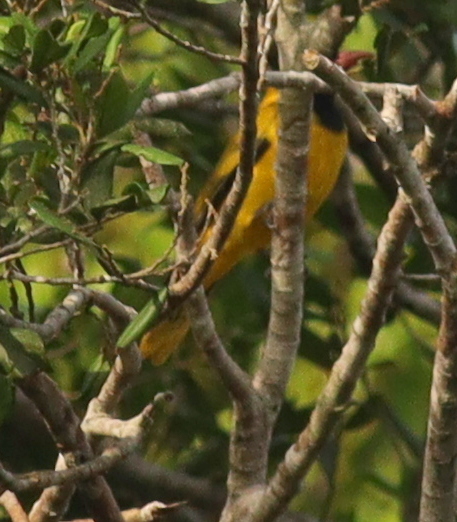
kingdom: Animalia
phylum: Chordata
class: Aves
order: Passeriformes
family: Oriolidae
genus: Oriolus
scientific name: Oriolus nigripennis
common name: Black-winged oriole
